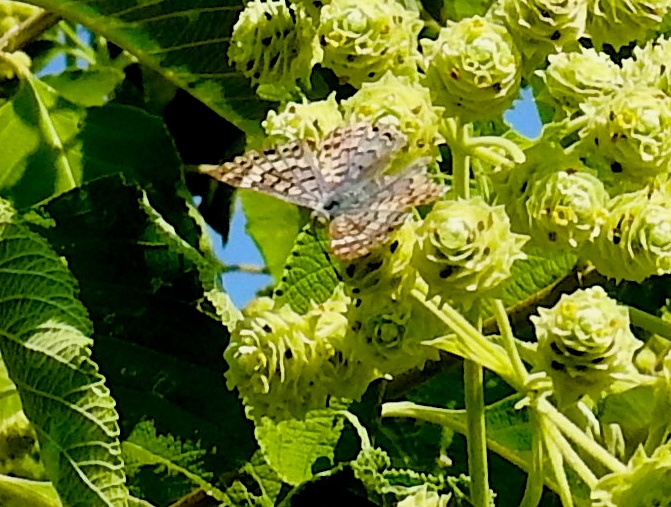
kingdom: Animalia
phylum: Arthropoda
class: Insecta
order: Diptera
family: Acroceridae
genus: Lasia
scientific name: Lasia
